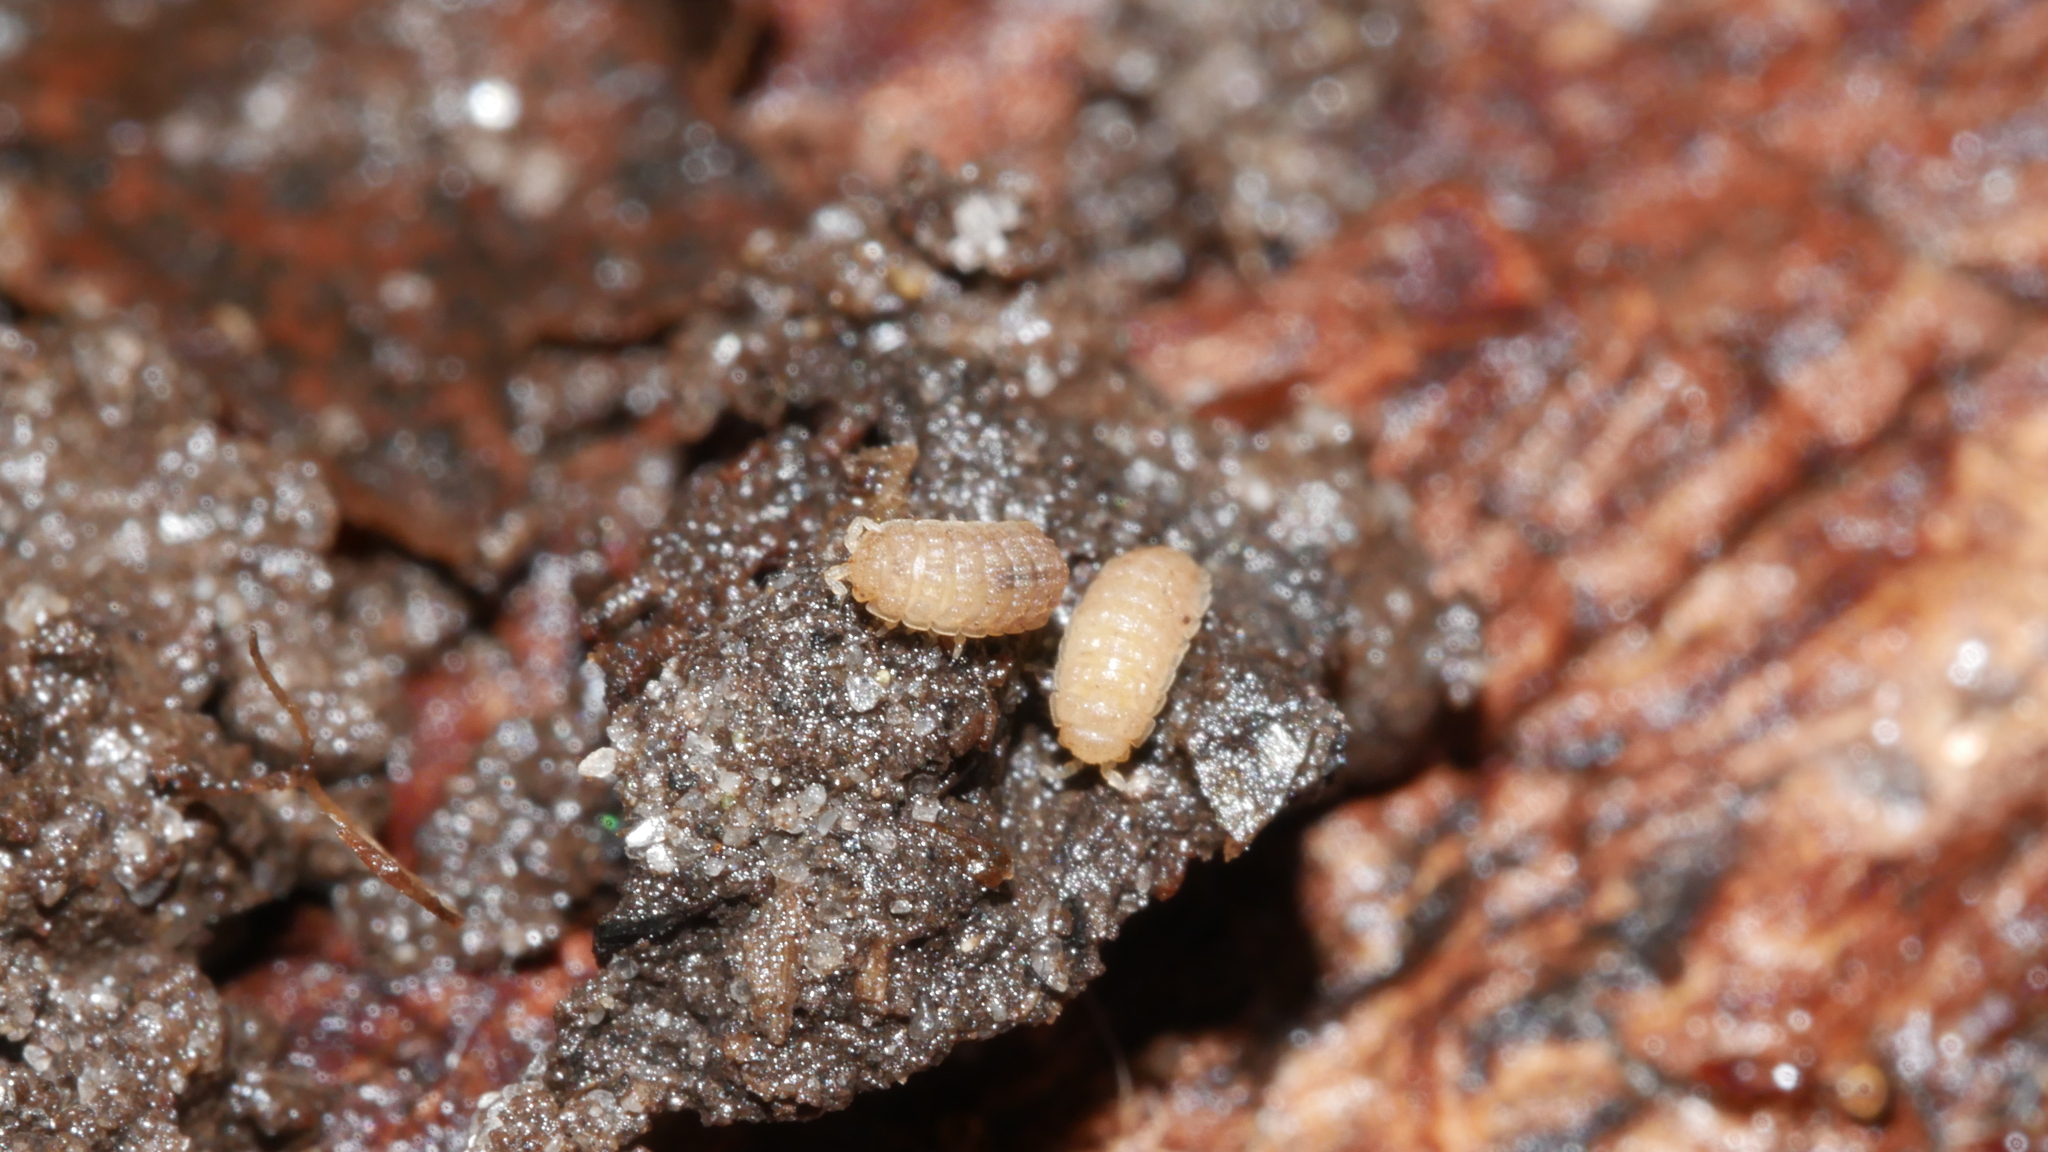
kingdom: Animalia
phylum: Arthropoda
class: Malacostraca
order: Isopoda
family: Trichoniscidae
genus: Haplophthalmus
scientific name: Haplophthalmus danicus
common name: Pillbug
